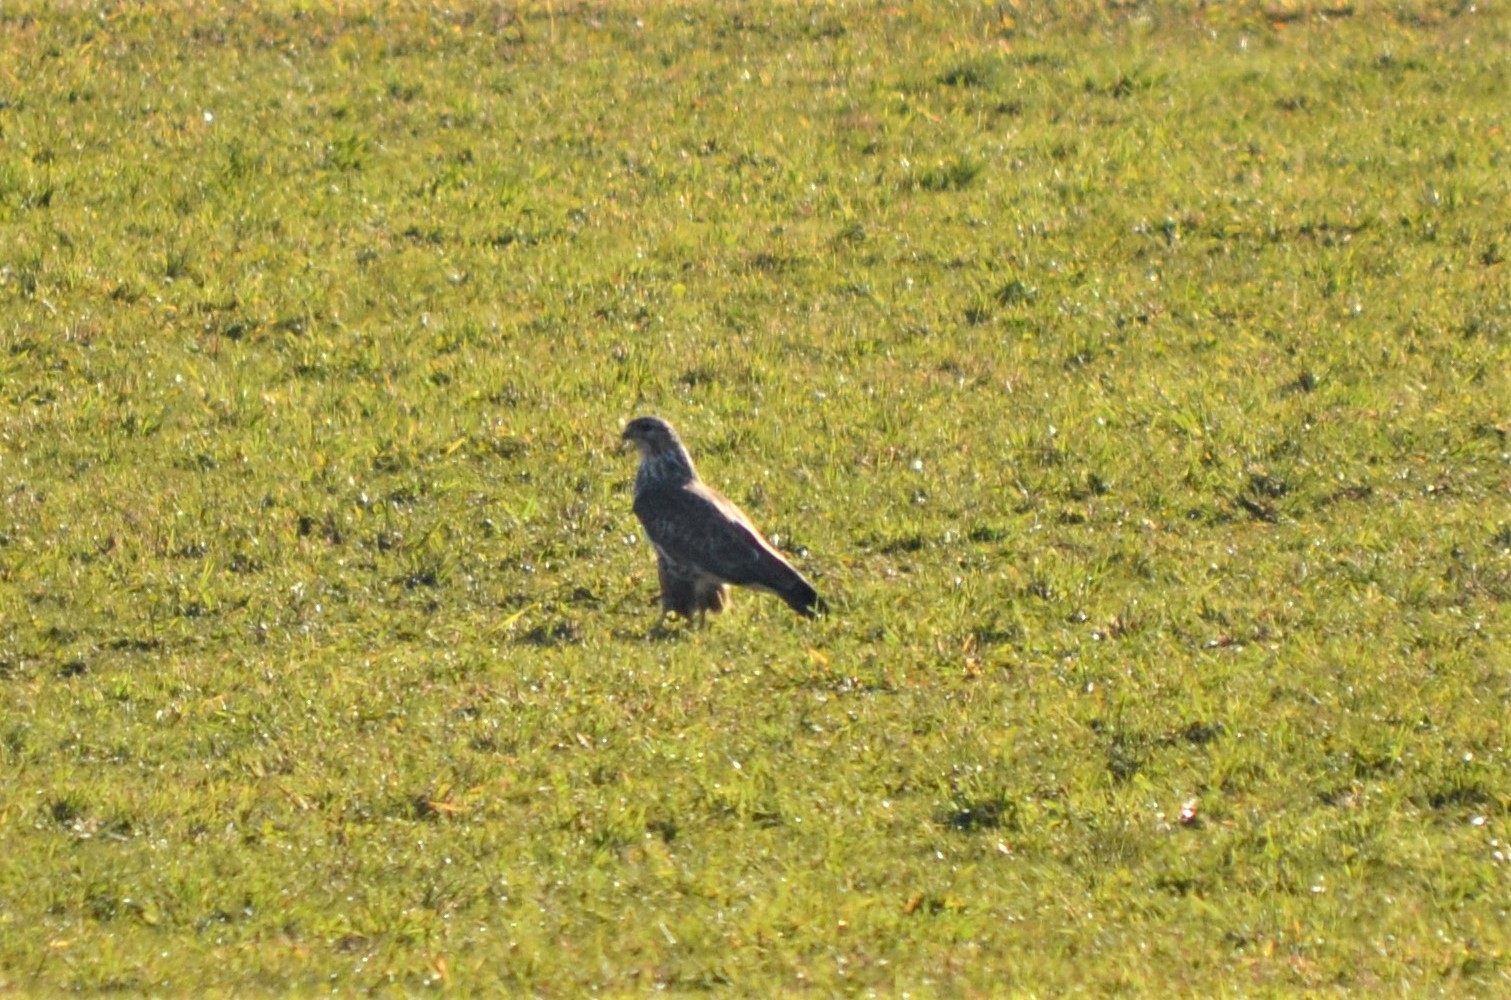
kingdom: Animalia
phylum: Chordata
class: Aves
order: Accipitriformes
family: Accipitridae
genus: Buteo
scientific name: Buteo buteo
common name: Common buzzard
